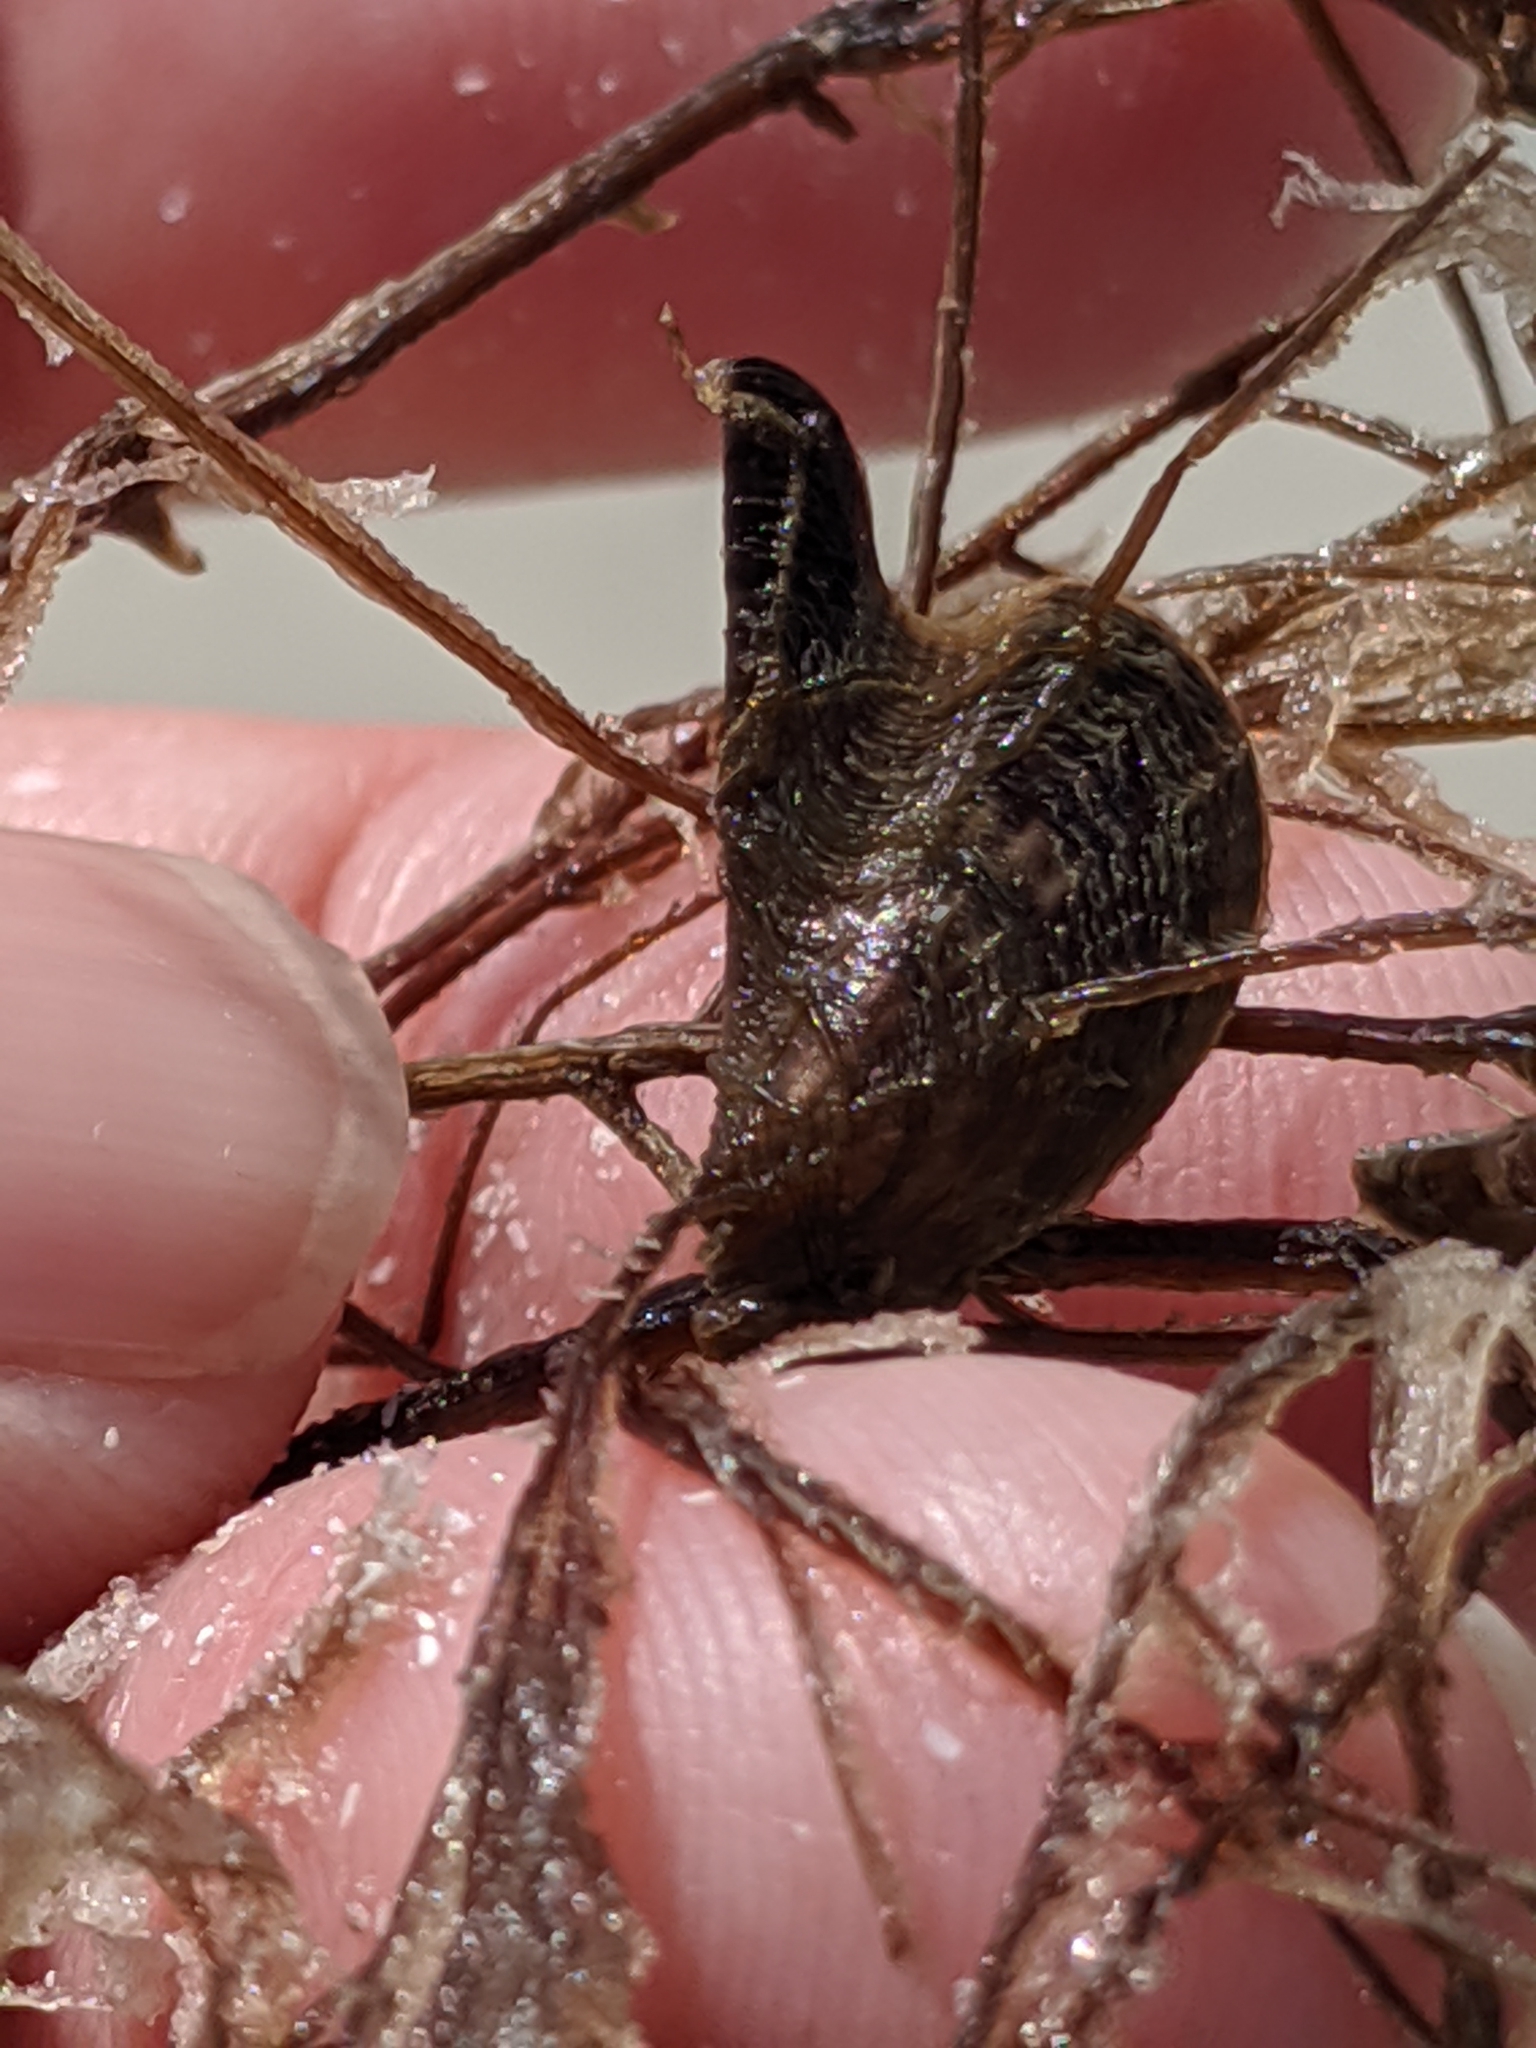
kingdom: Animalia
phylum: Mollusca
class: Bivalvia
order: Ostreida
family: Pteriidae
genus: Pteria
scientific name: Pteria colymbus
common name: Atlantic wing-oyster
